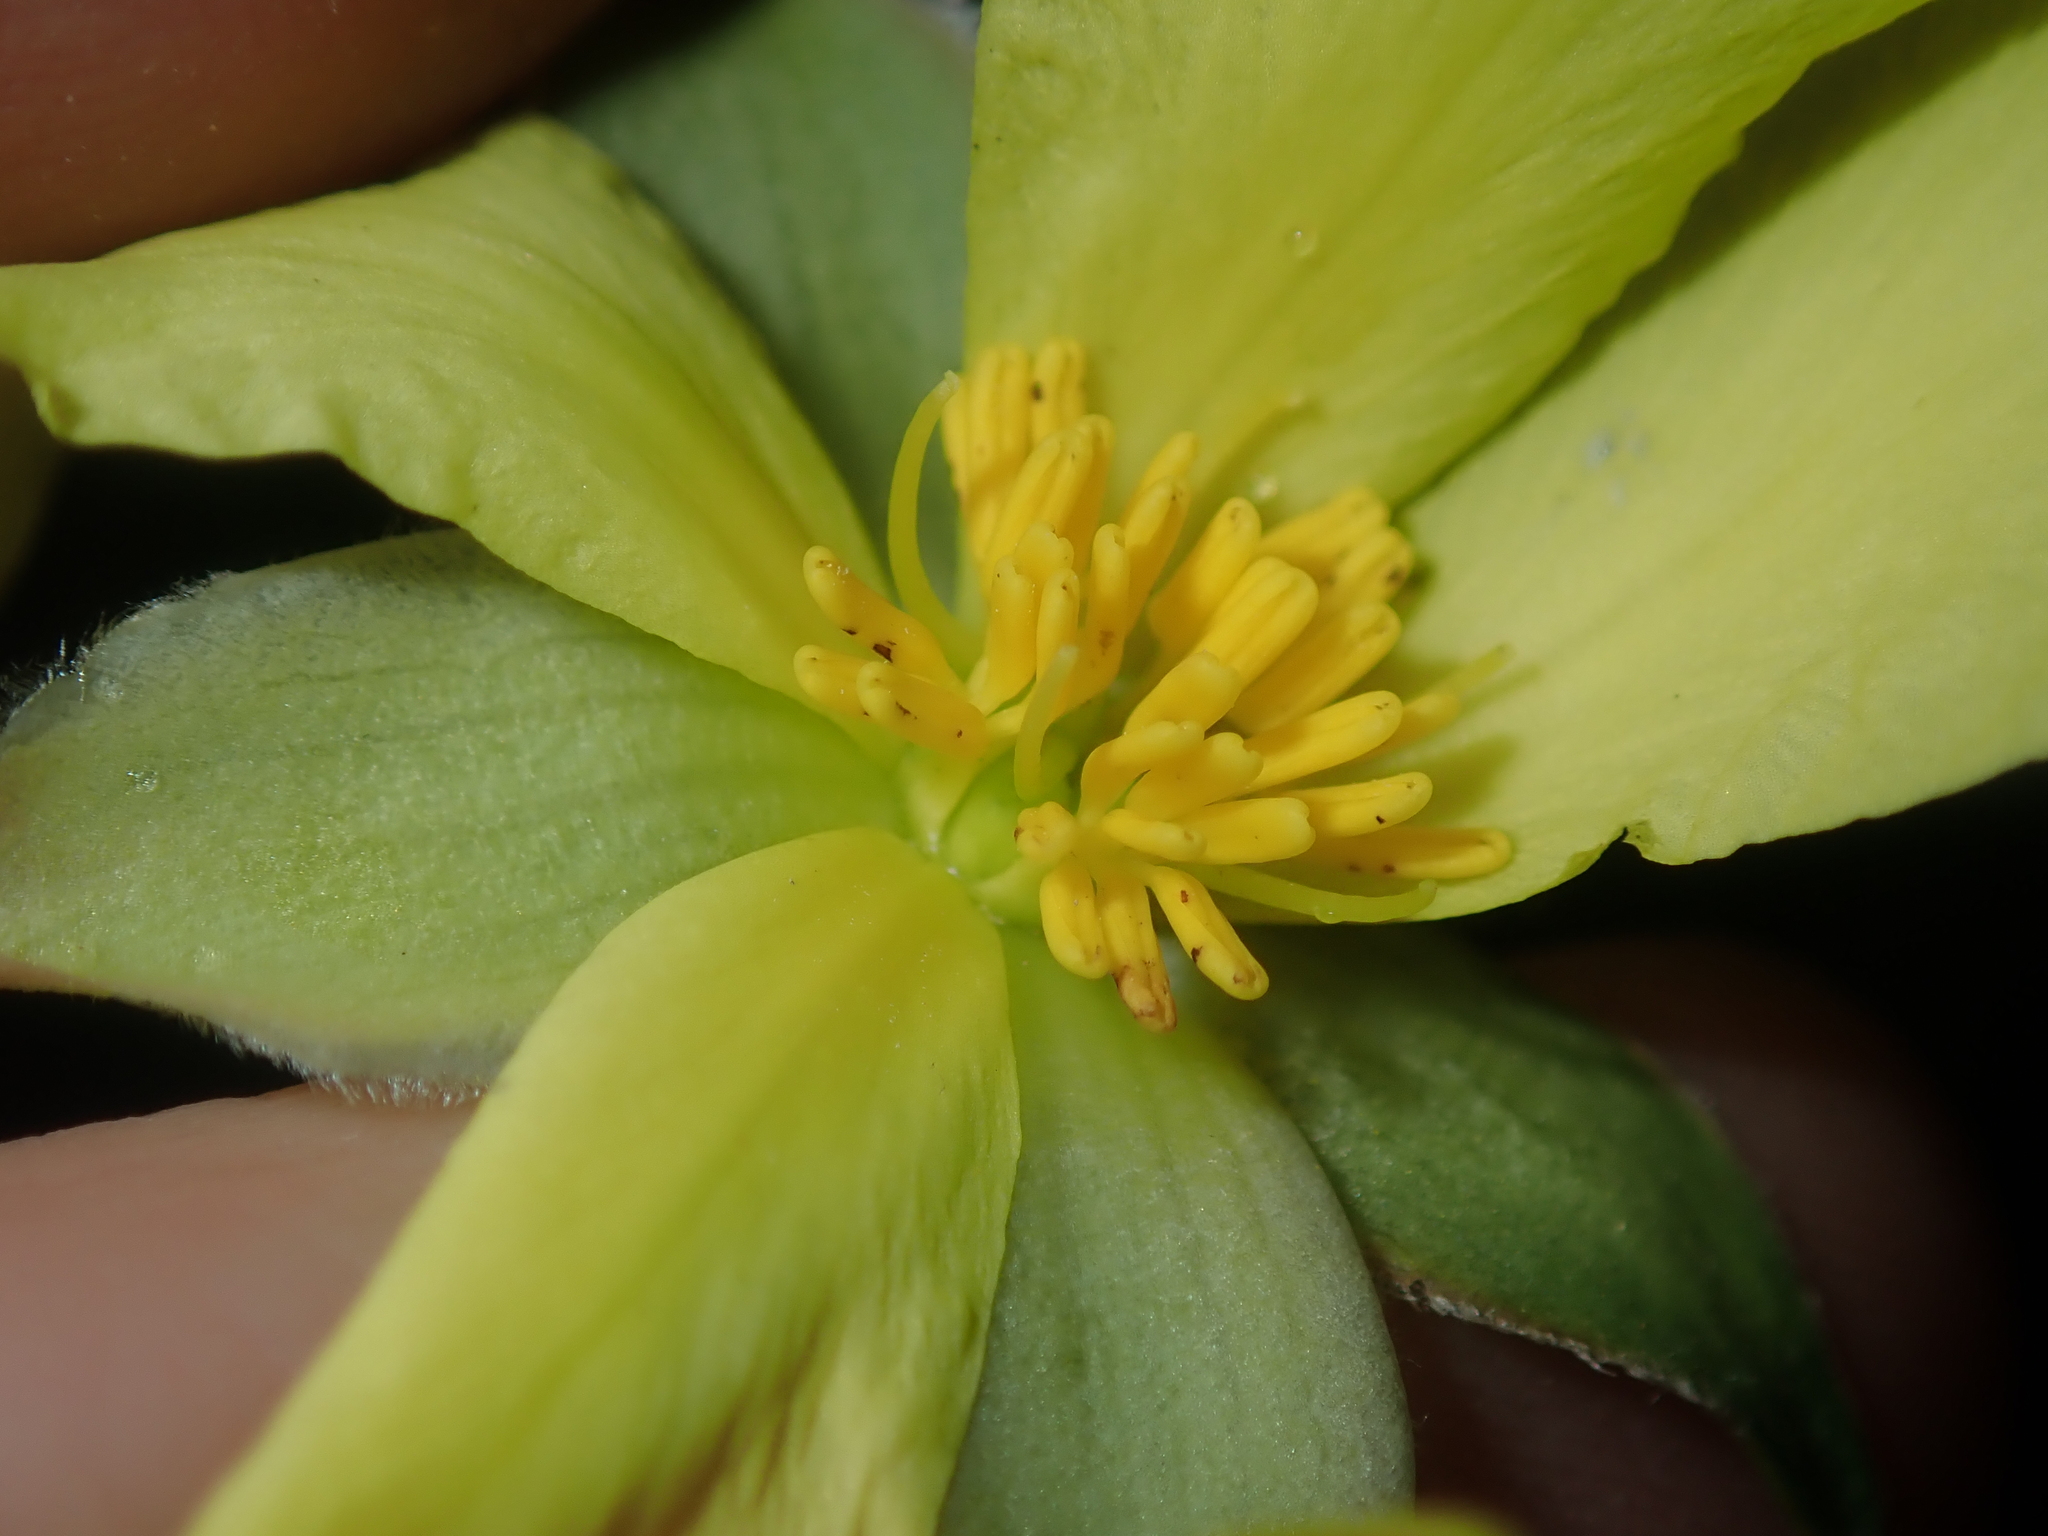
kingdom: Plantae
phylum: Tracheophyta
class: Magnoliopsida
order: Dilleniales
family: Dilleniaceae
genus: Hibbertia
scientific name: Hibbertia striata
